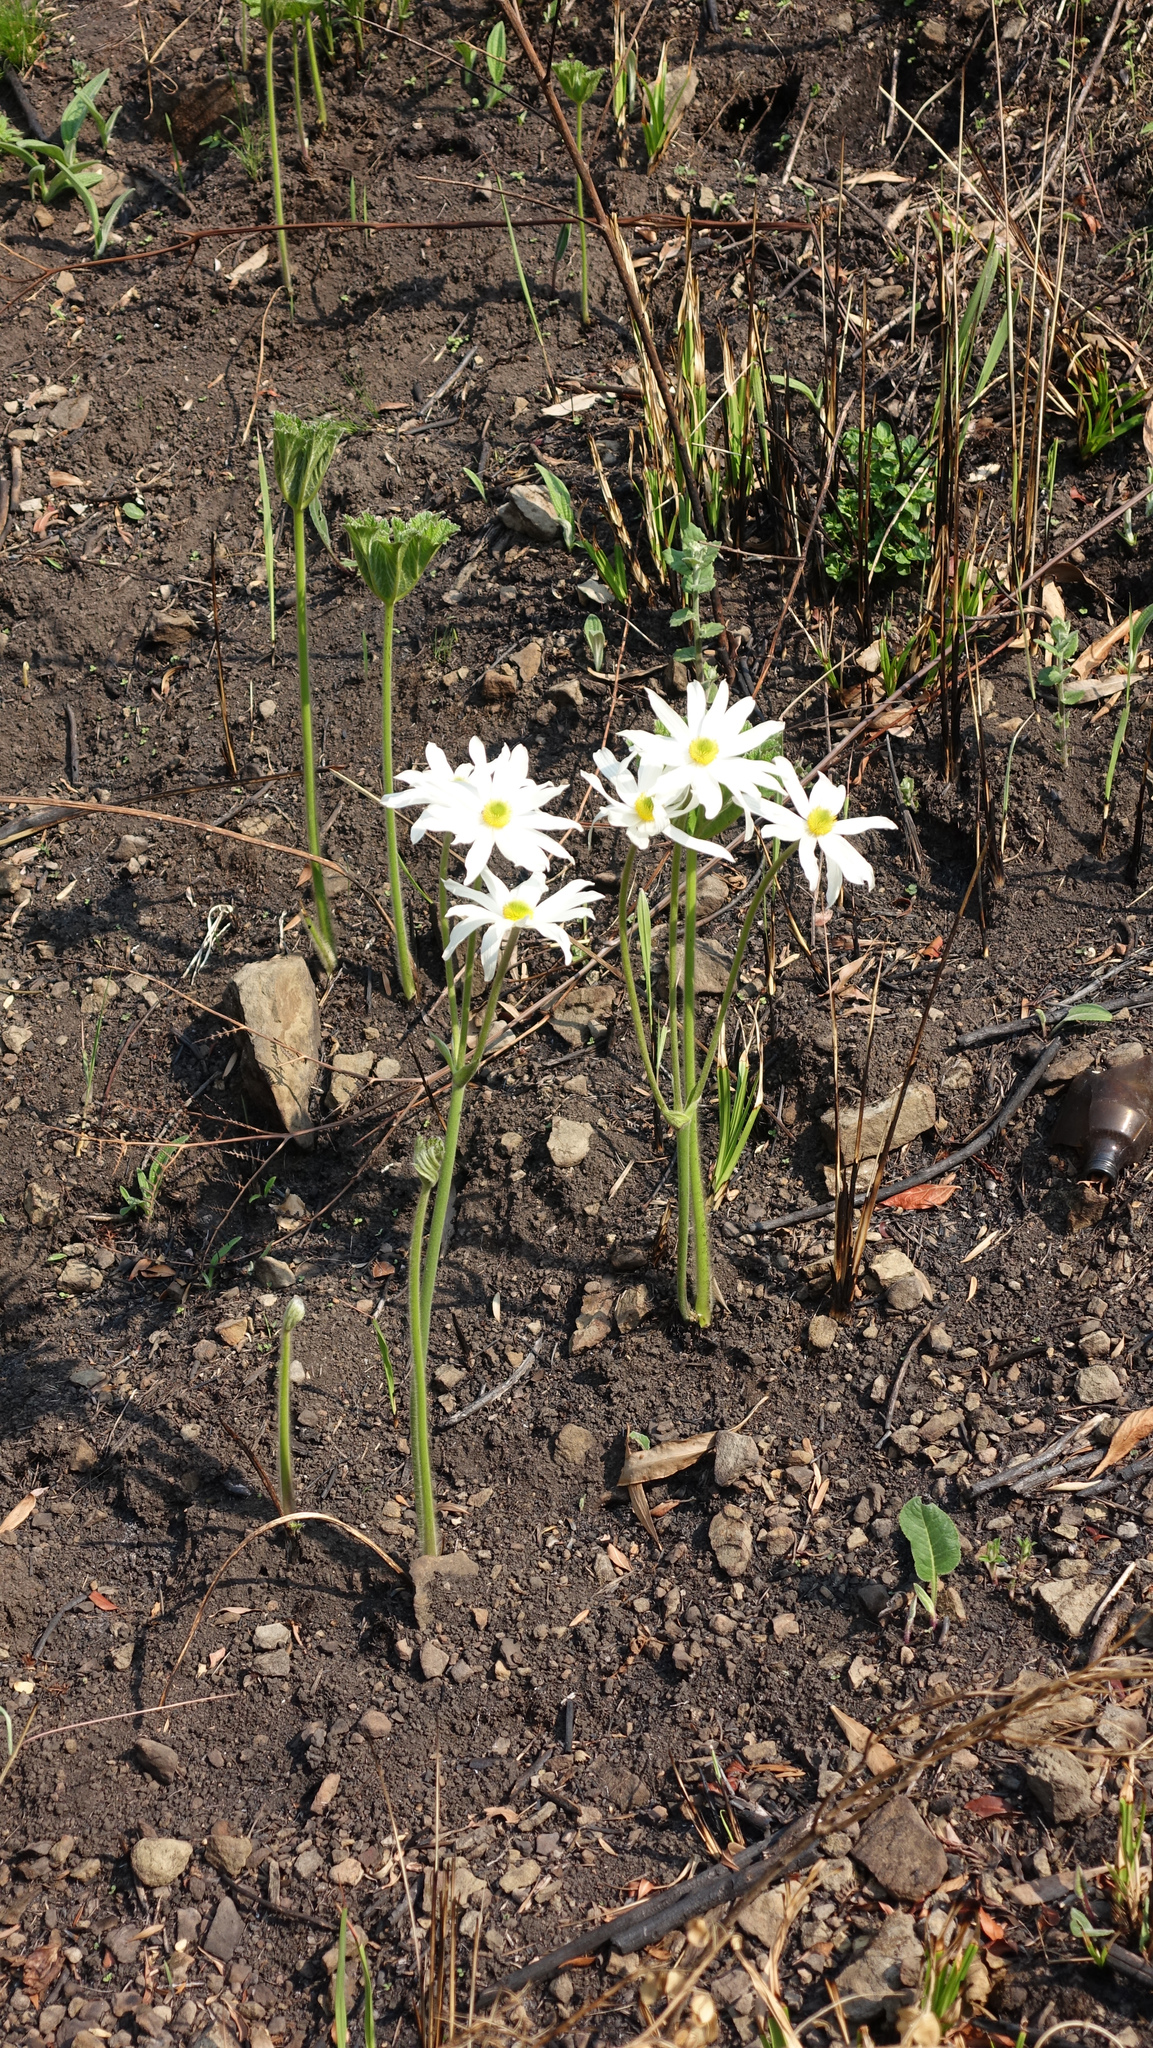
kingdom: Plantae
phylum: Tracheophyta
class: Magnoliopsida
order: Ranunculales
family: Ranunculaceae
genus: Knowltonia
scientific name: Knowltonia fanninii
